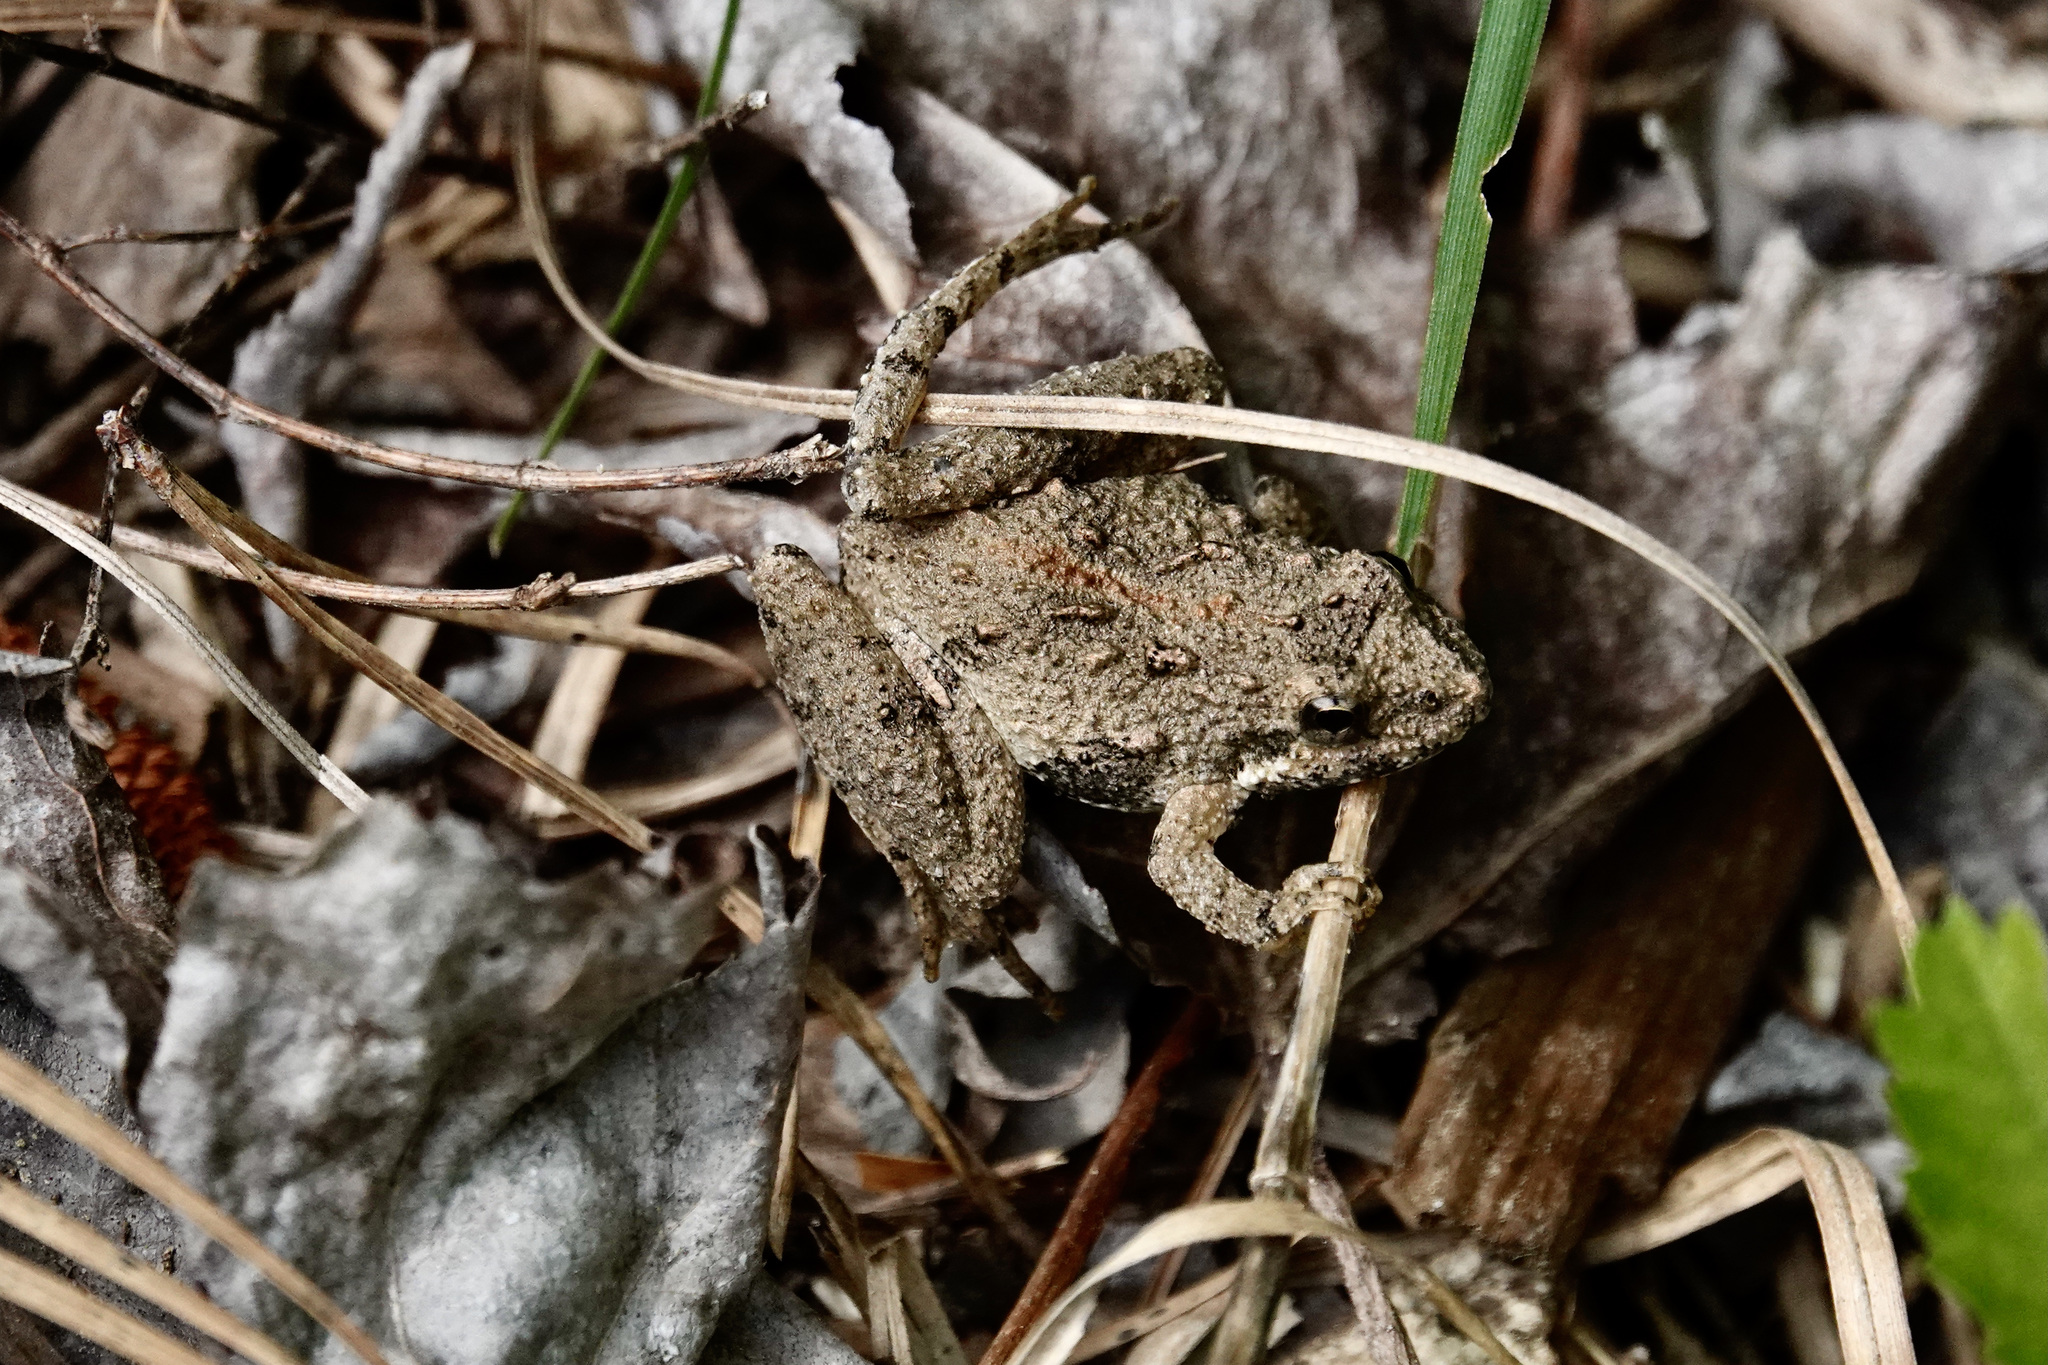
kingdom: Animalia
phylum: Chordata
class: Amphibia
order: Anura
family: Hylidae
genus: Acris
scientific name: Acris crepitans
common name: Northern cricket frog
